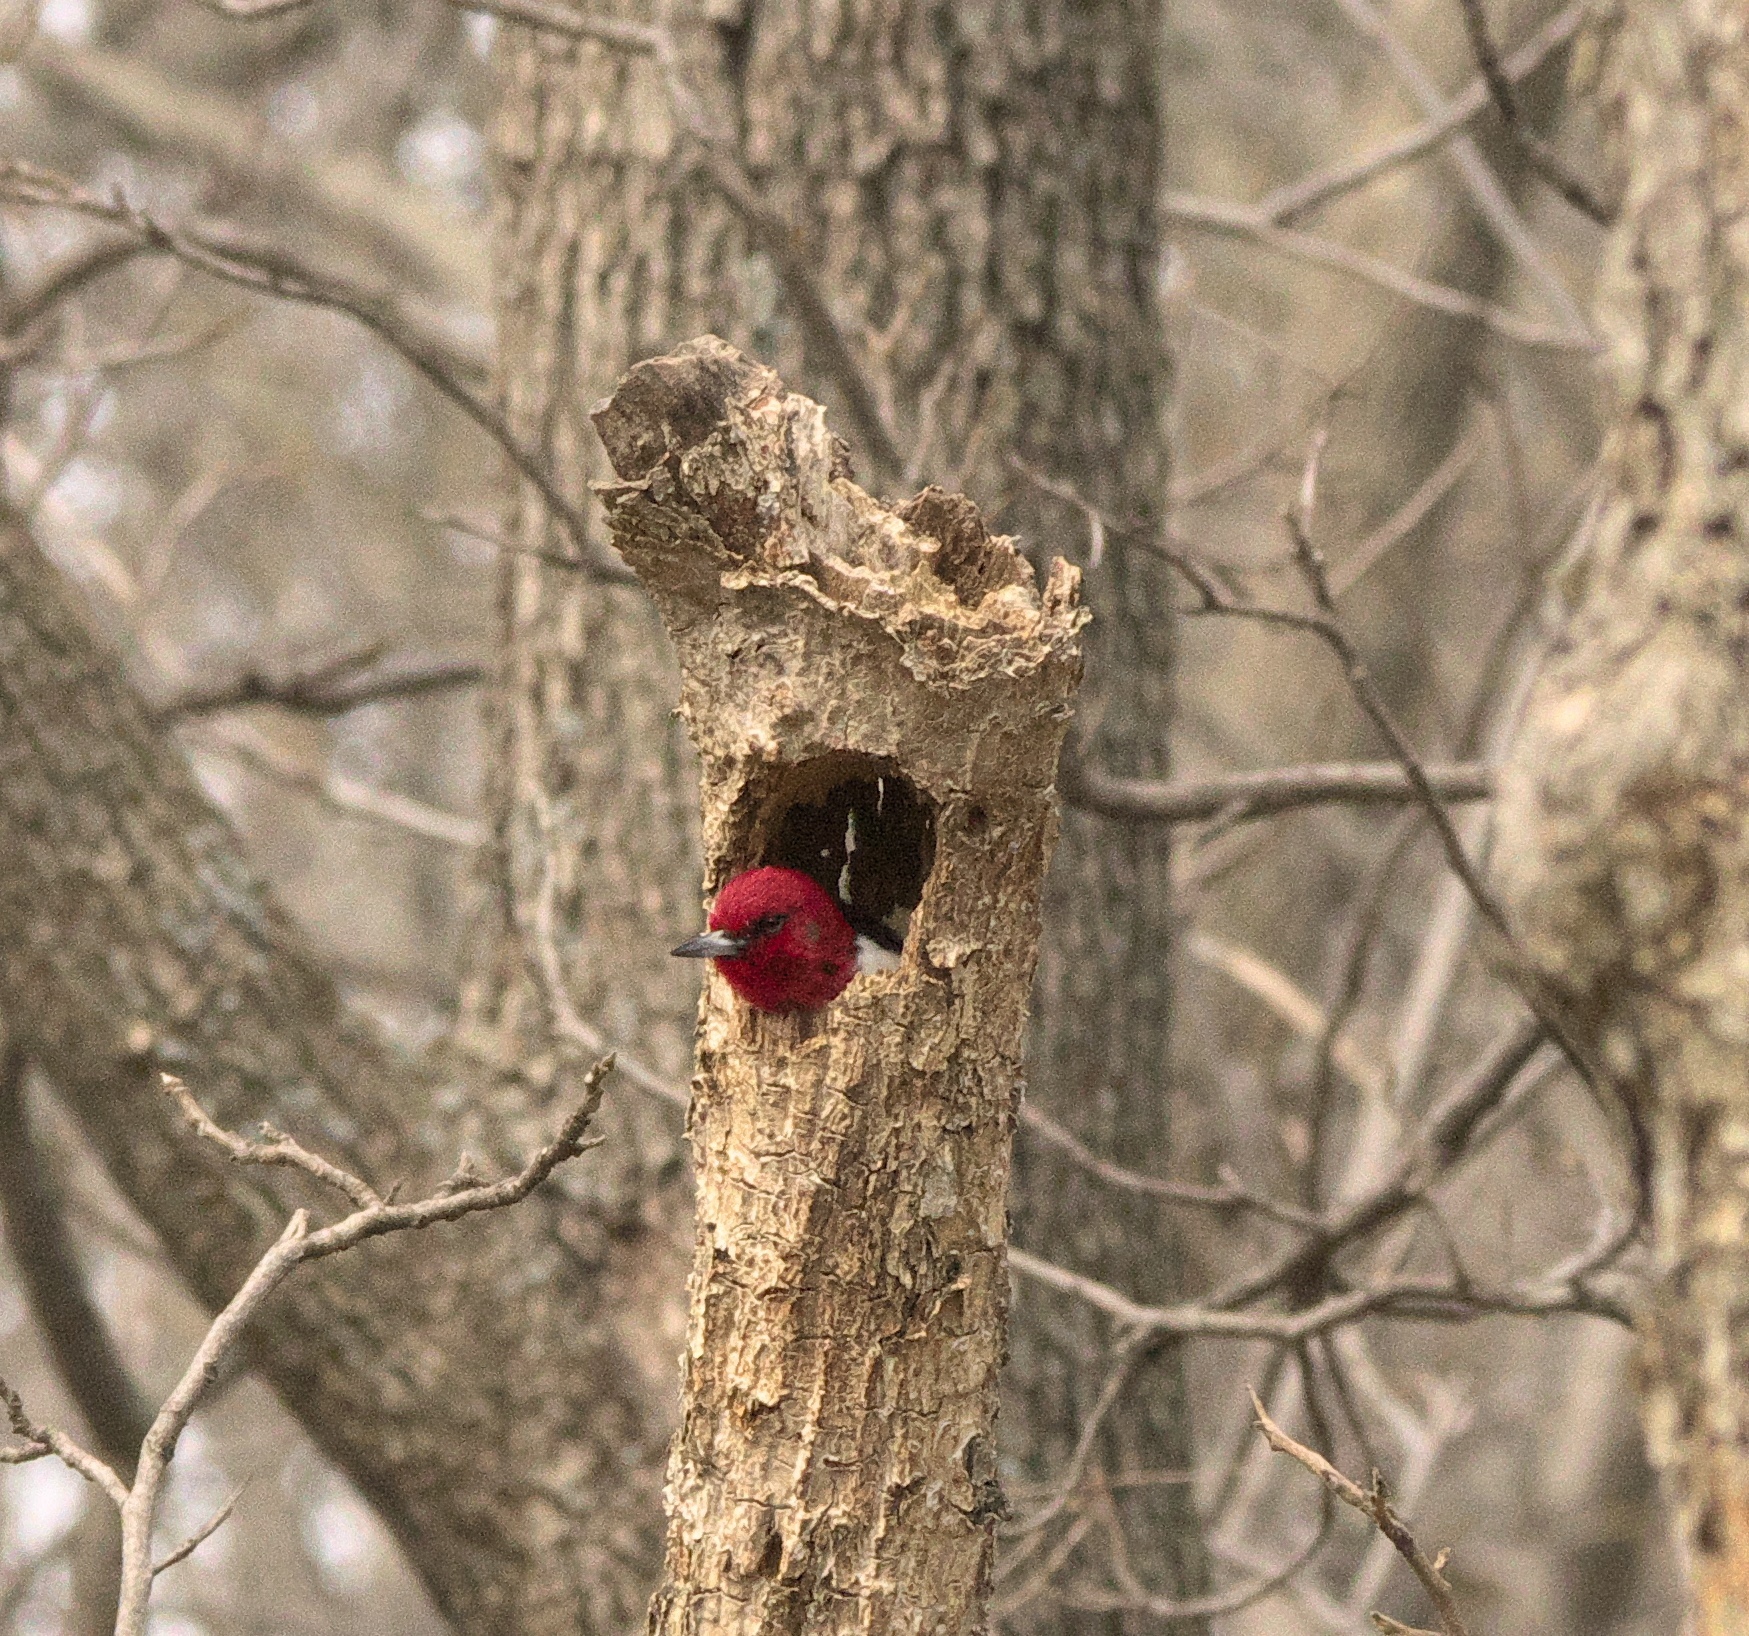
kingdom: Animalia
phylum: Chordata
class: Aves
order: Piciformes
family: Picidae
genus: Melanerpes
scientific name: Melanerpes erythrocephalus
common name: Red-headed woodpecker
